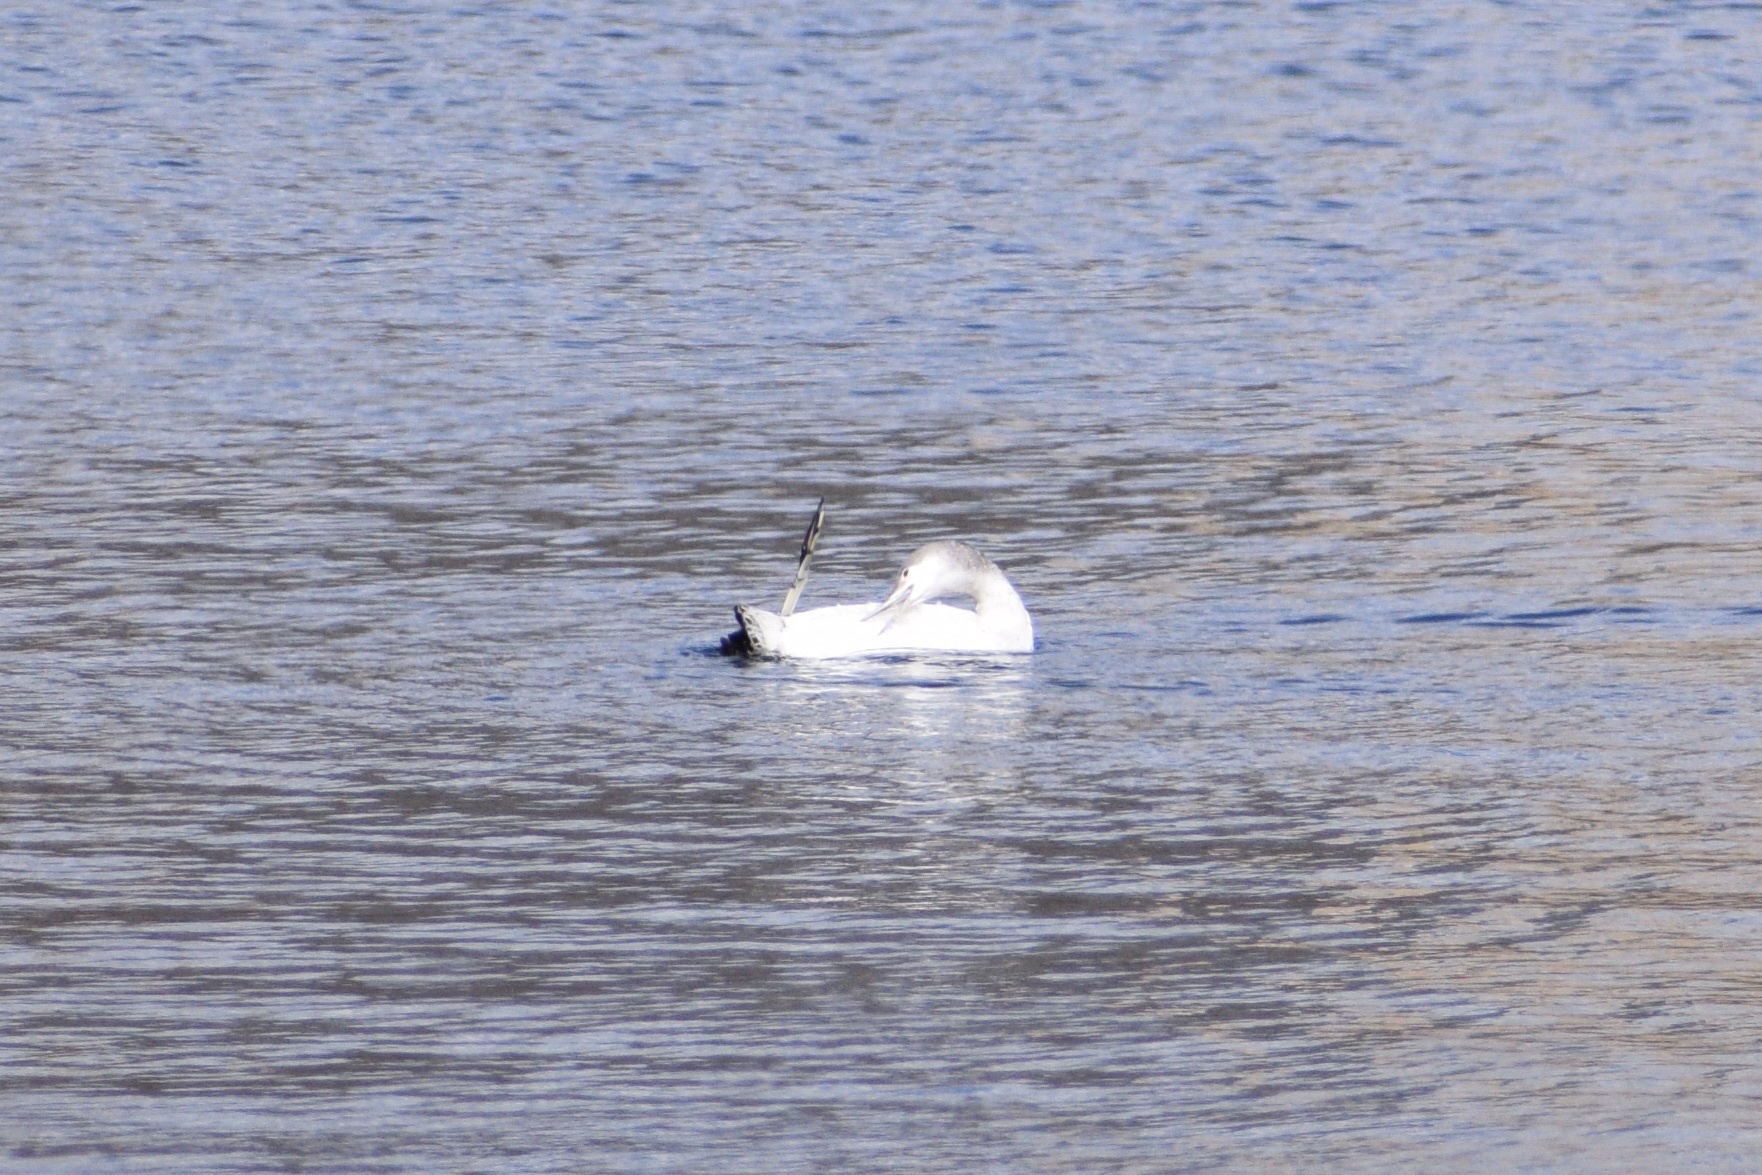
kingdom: Animalia
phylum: Chordata
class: Aves
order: Gaviiformes
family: Gaviidae
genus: Gavia
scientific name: Gavia stellata
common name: Red-throated loon
